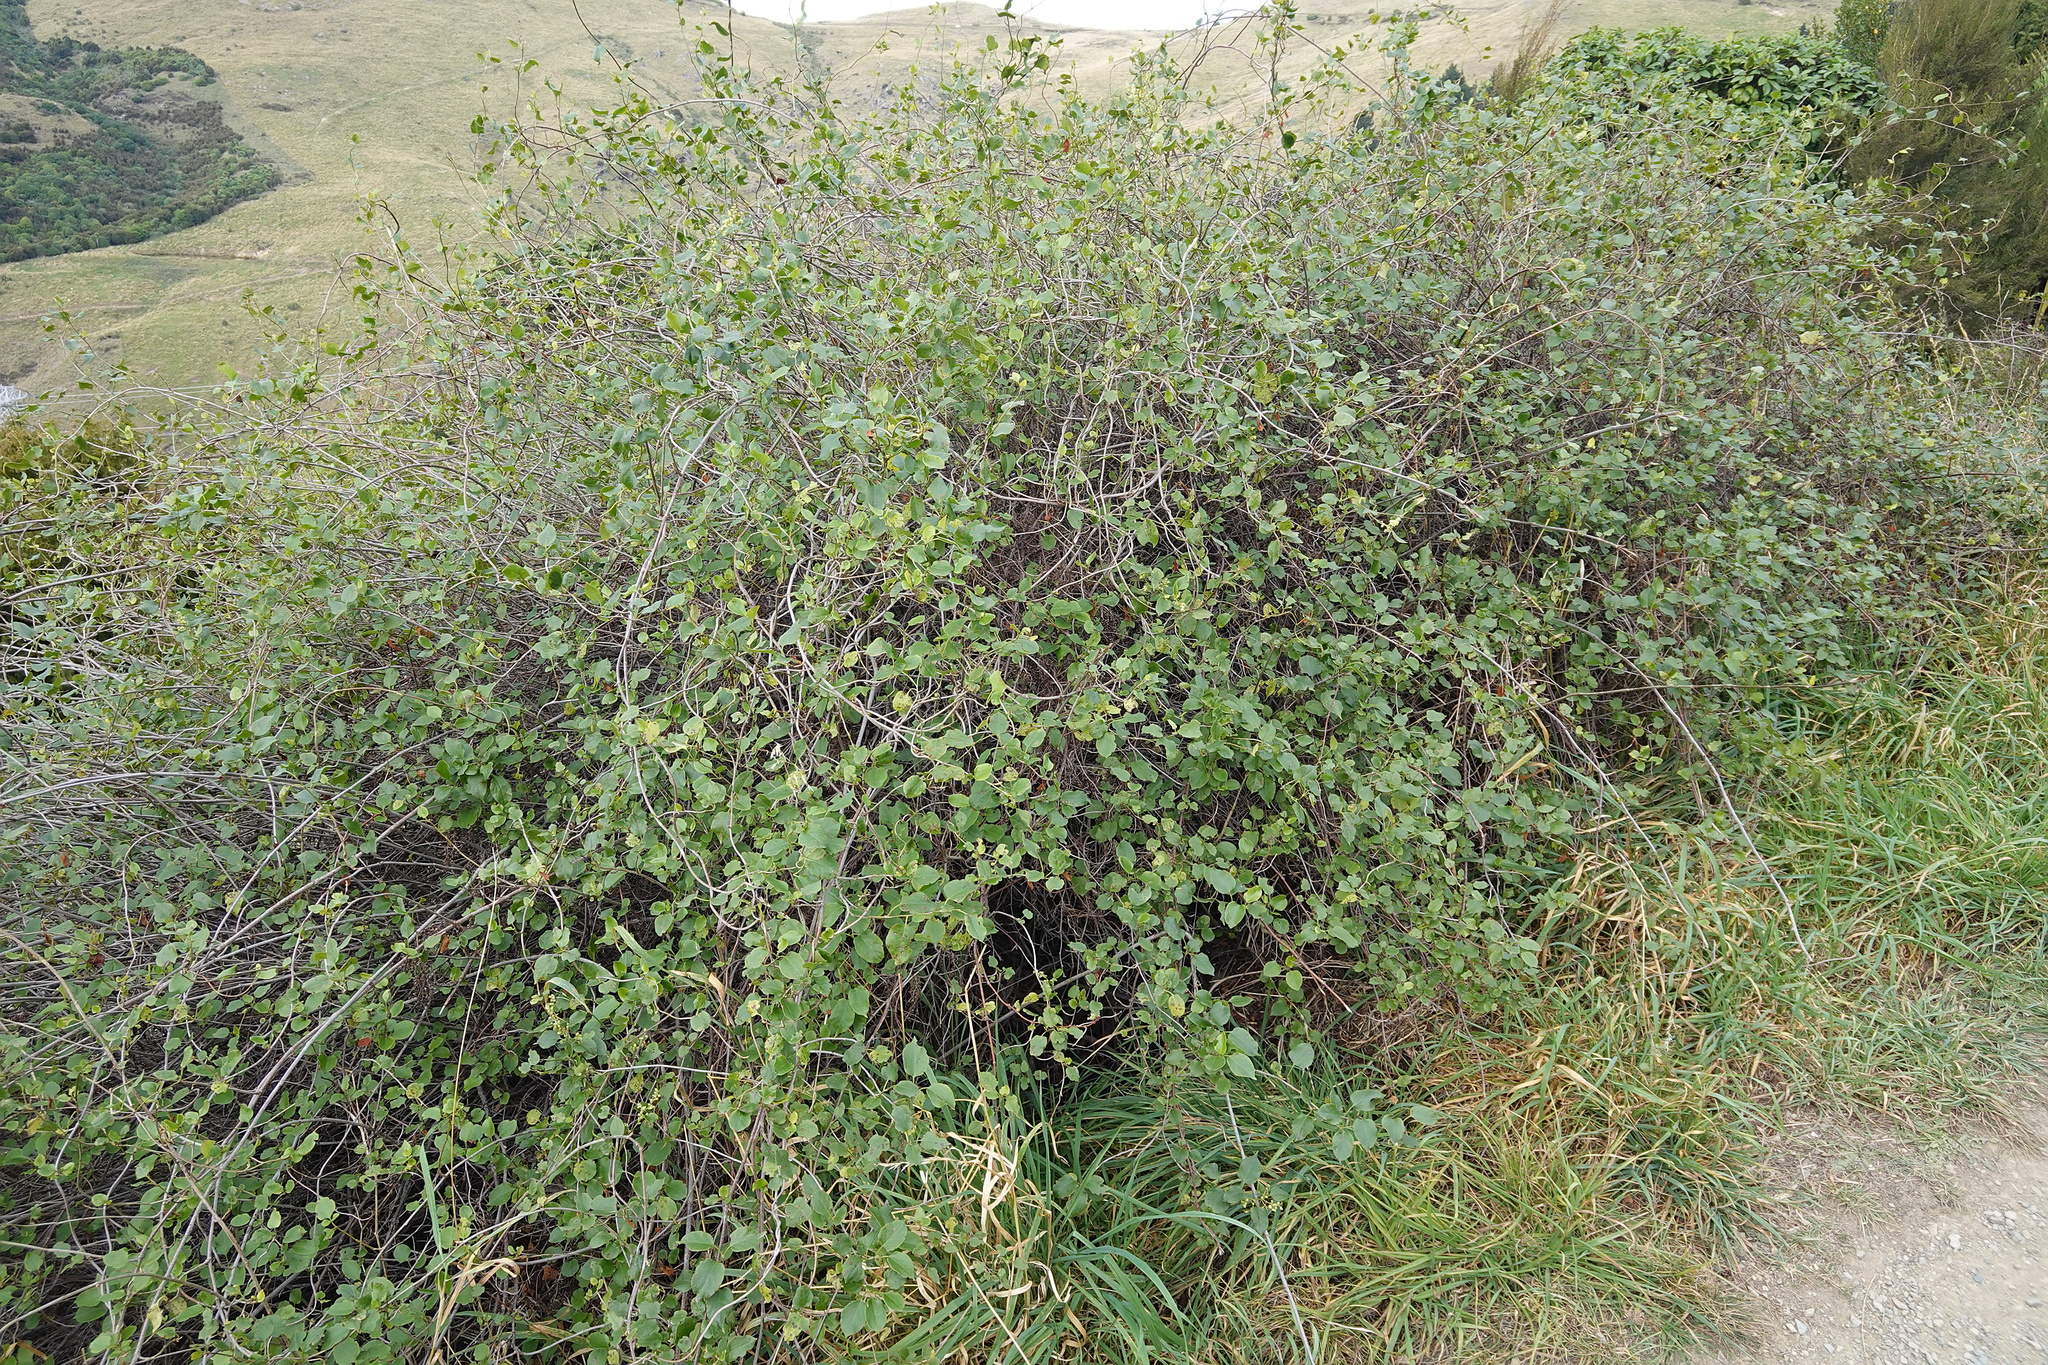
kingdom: Plantae
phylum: Tracheophyta
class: Magnoliopsida
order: Caryophyllales
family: Polygonaceae
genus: Muehlenbeckia
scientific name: Muehlenbeckia australis
